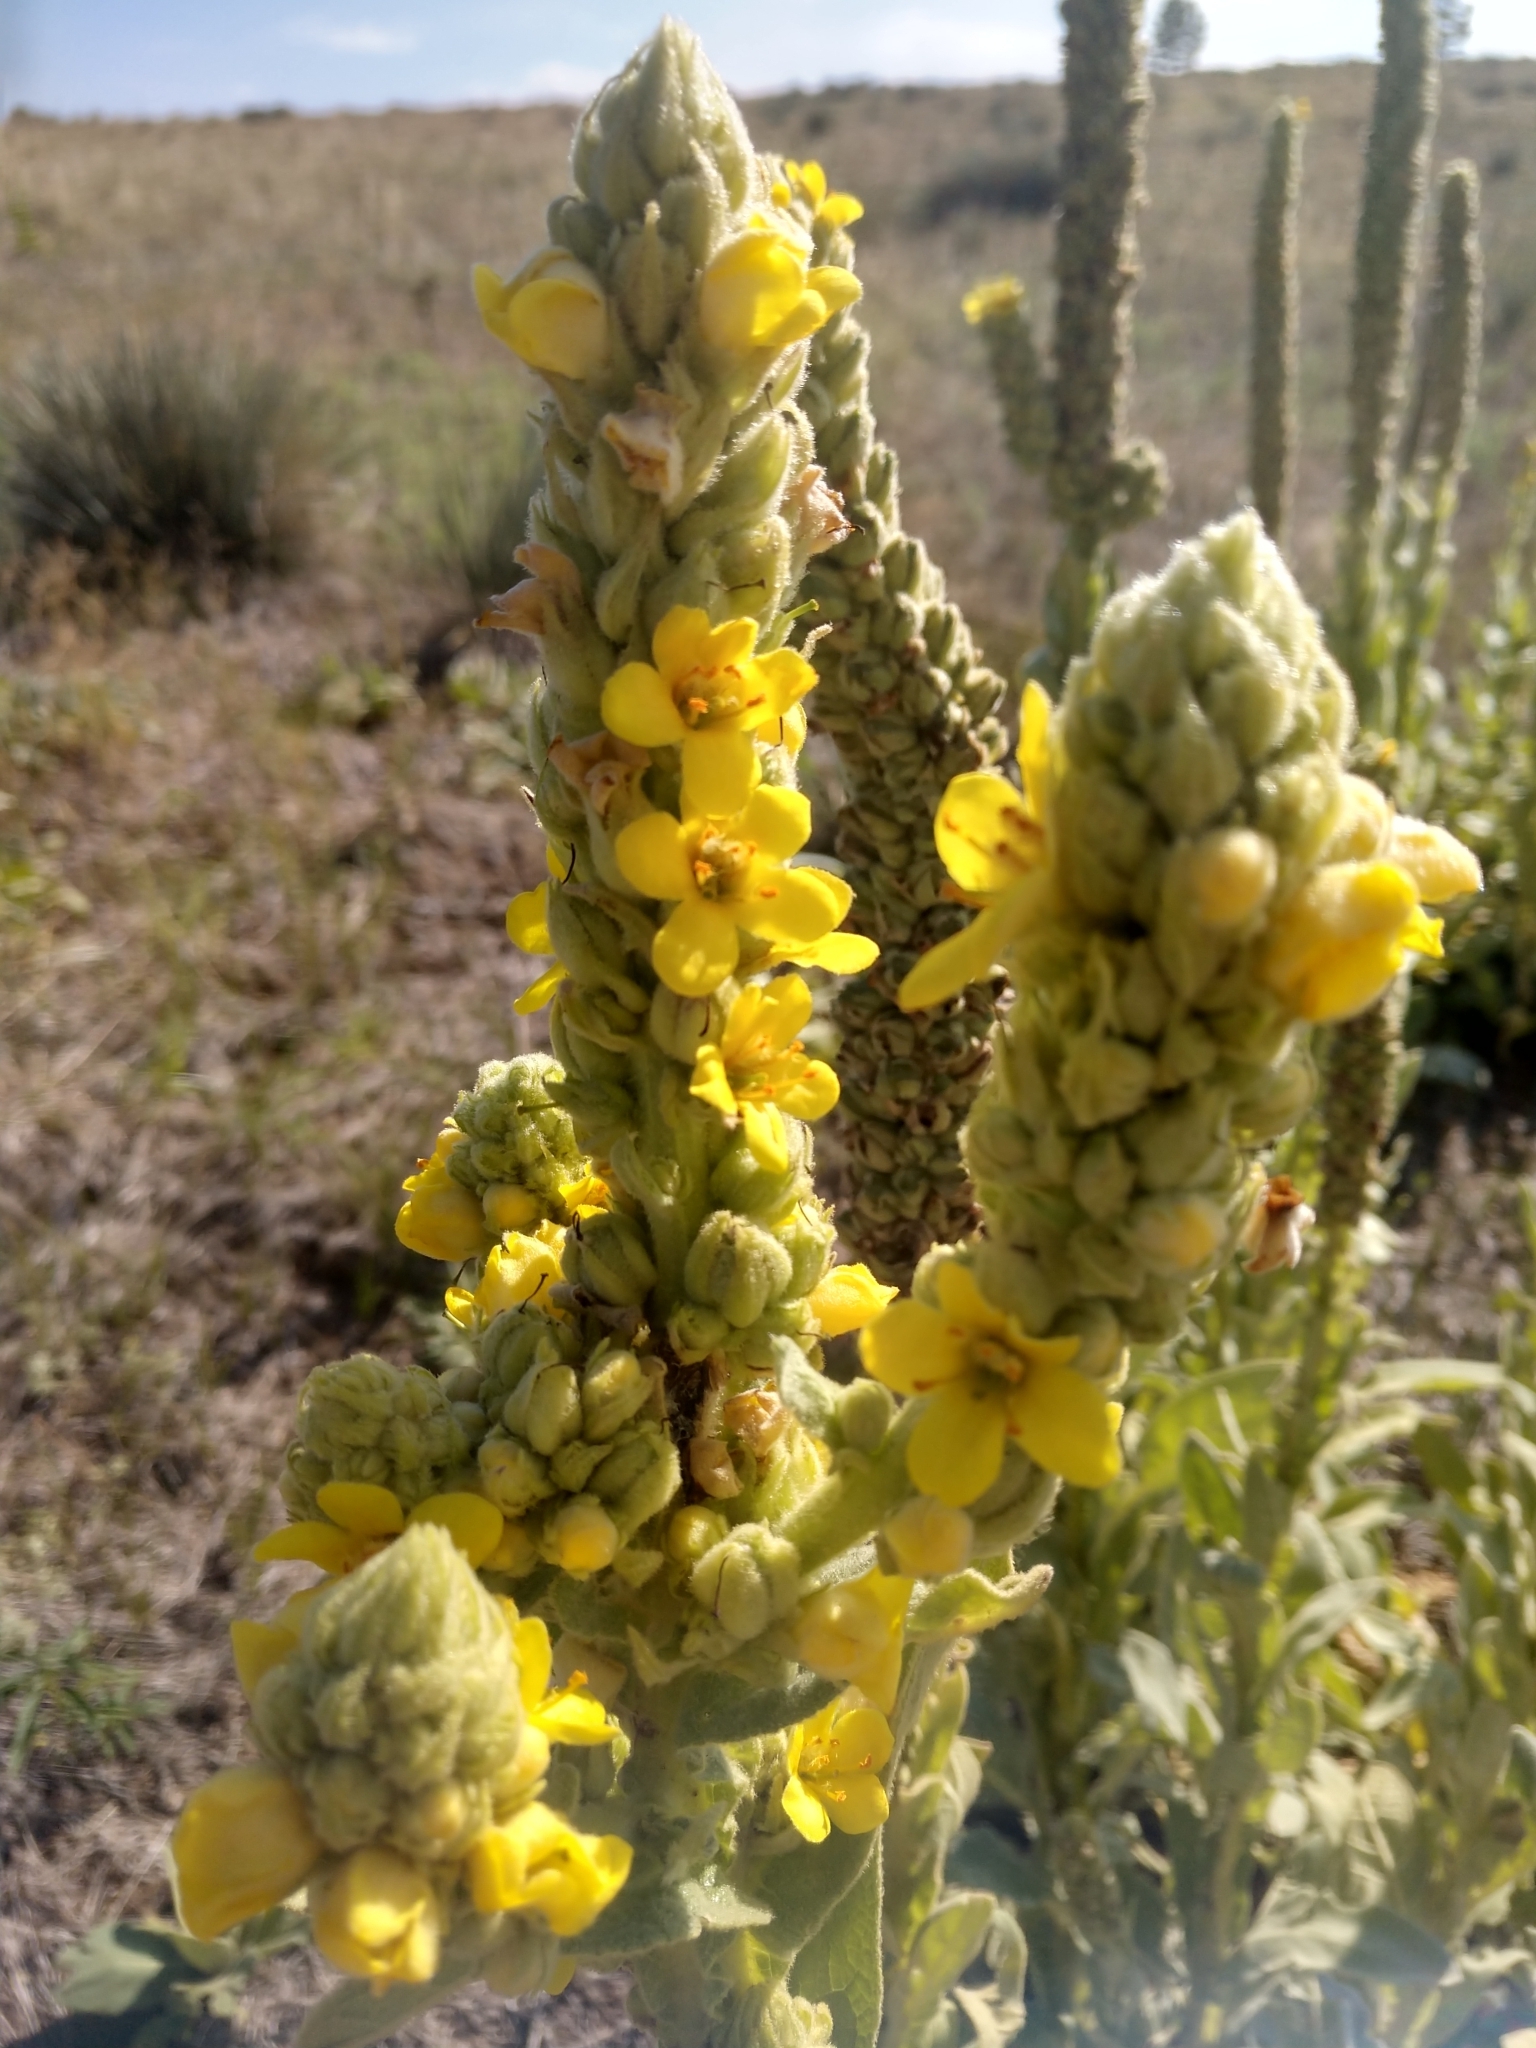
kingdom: Plantae
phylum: Tracheophyta
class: Magnoliopsida
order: Lamiales
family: Scrophulariaceae
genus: Verbascum
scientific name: Verbascum thapsus
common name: Common mullein
